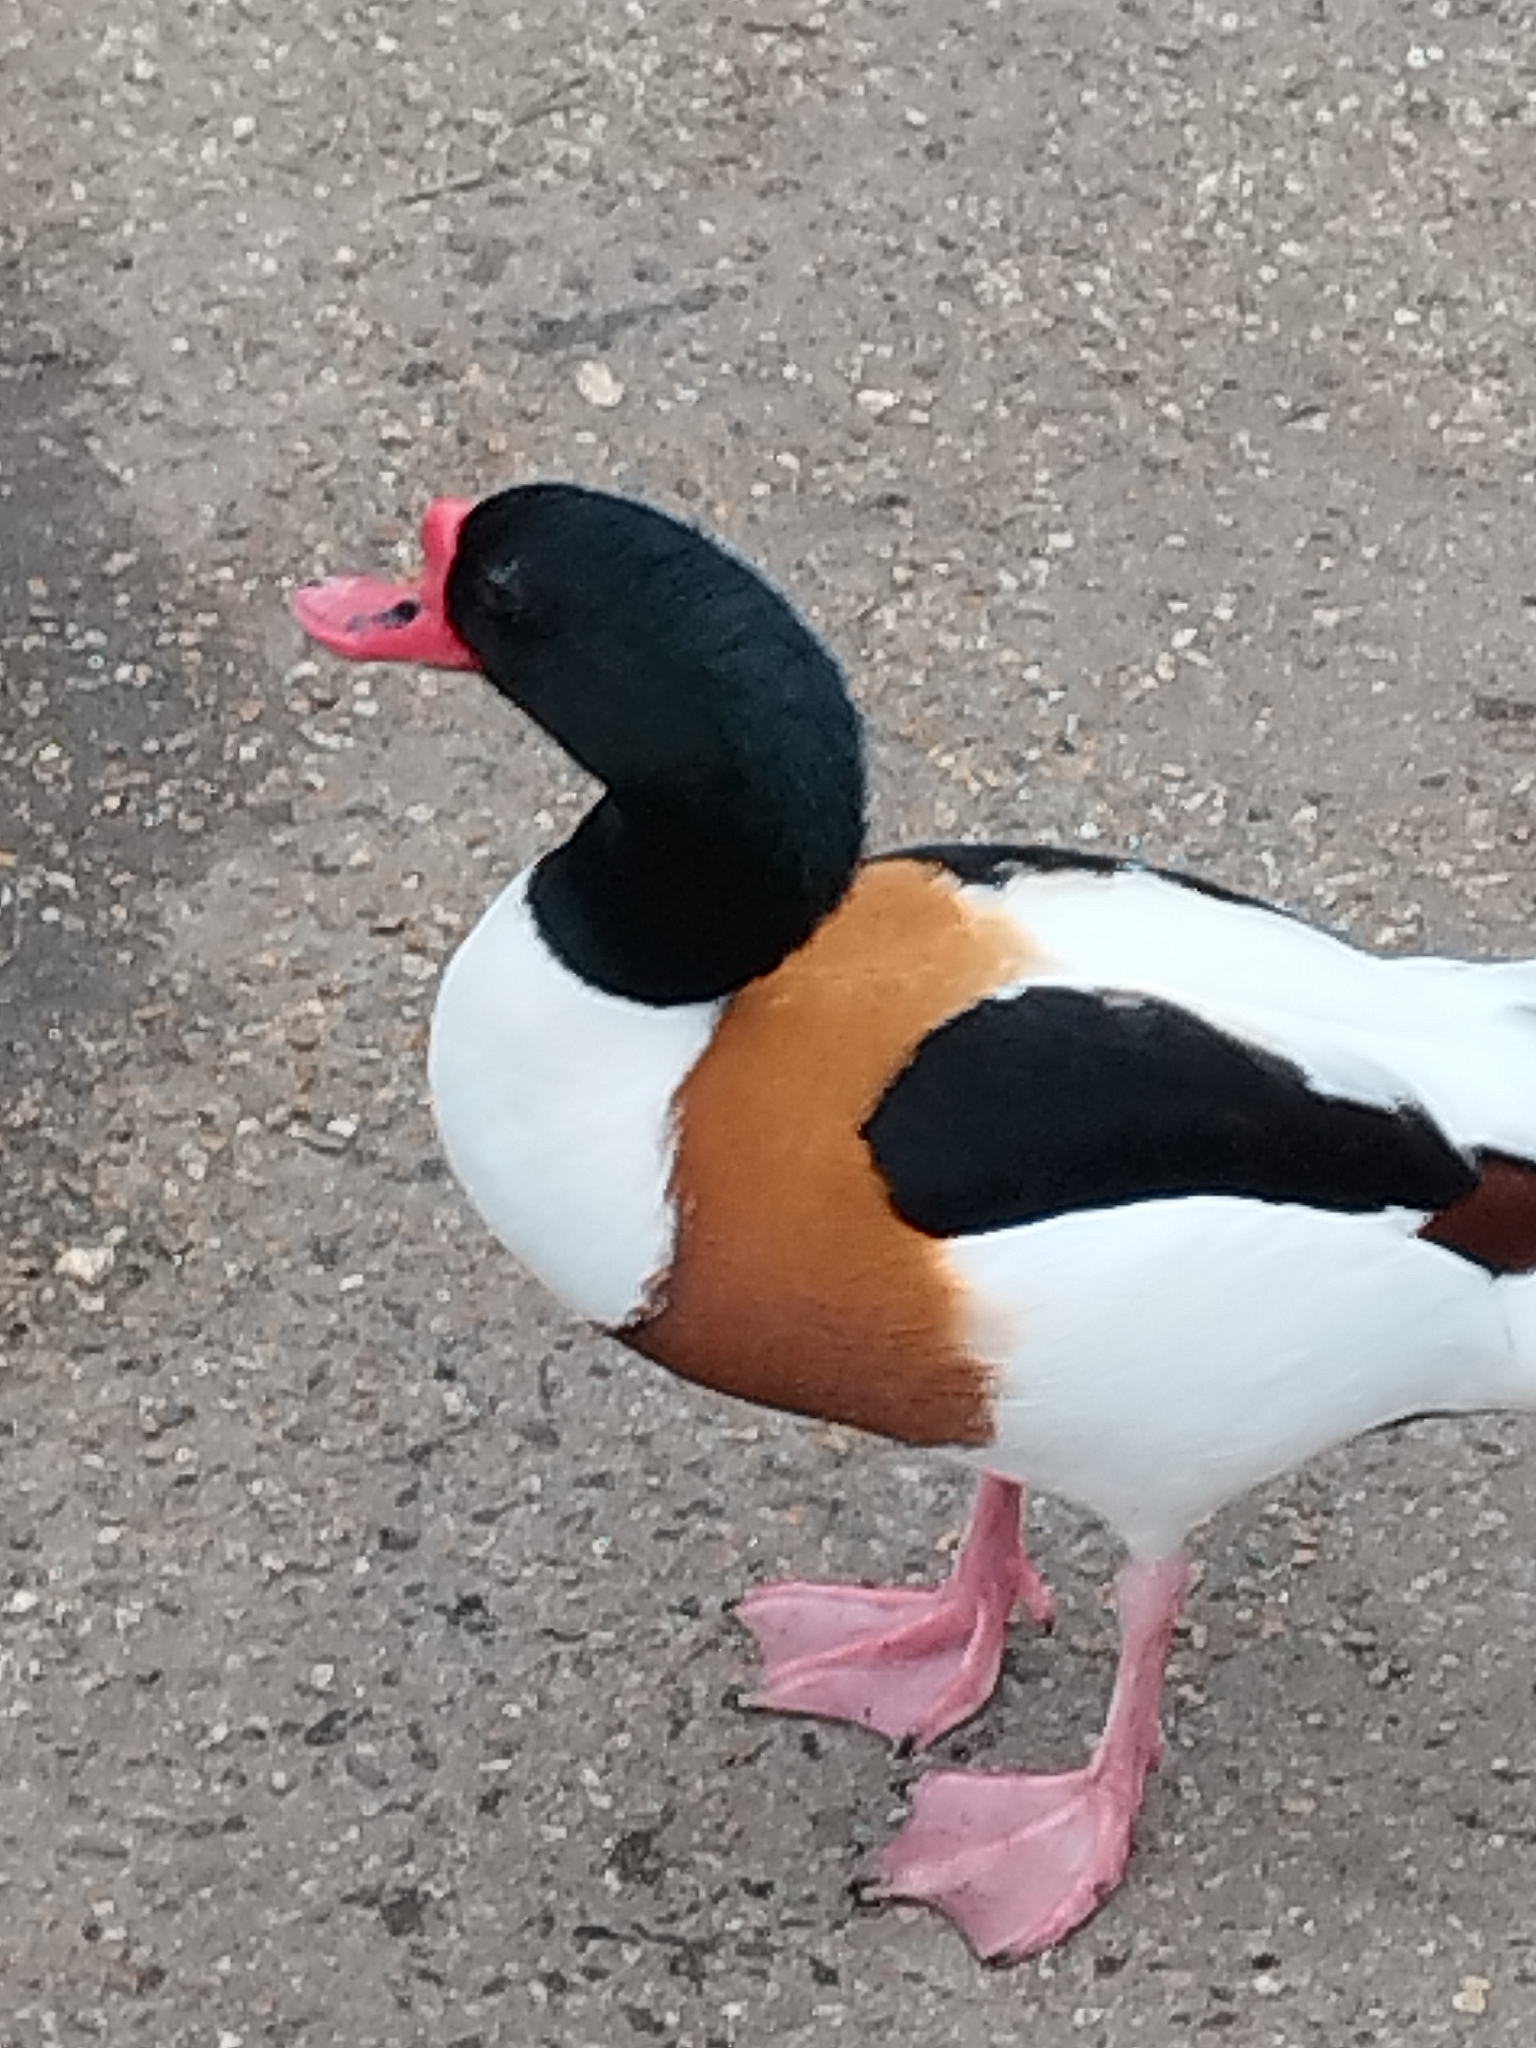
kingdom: Animalia
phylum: Chordata
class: Aves
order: Anseriformes
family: Anatidae
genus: Tadorna
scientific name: Tadorna tadorna
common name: Common shelduck
